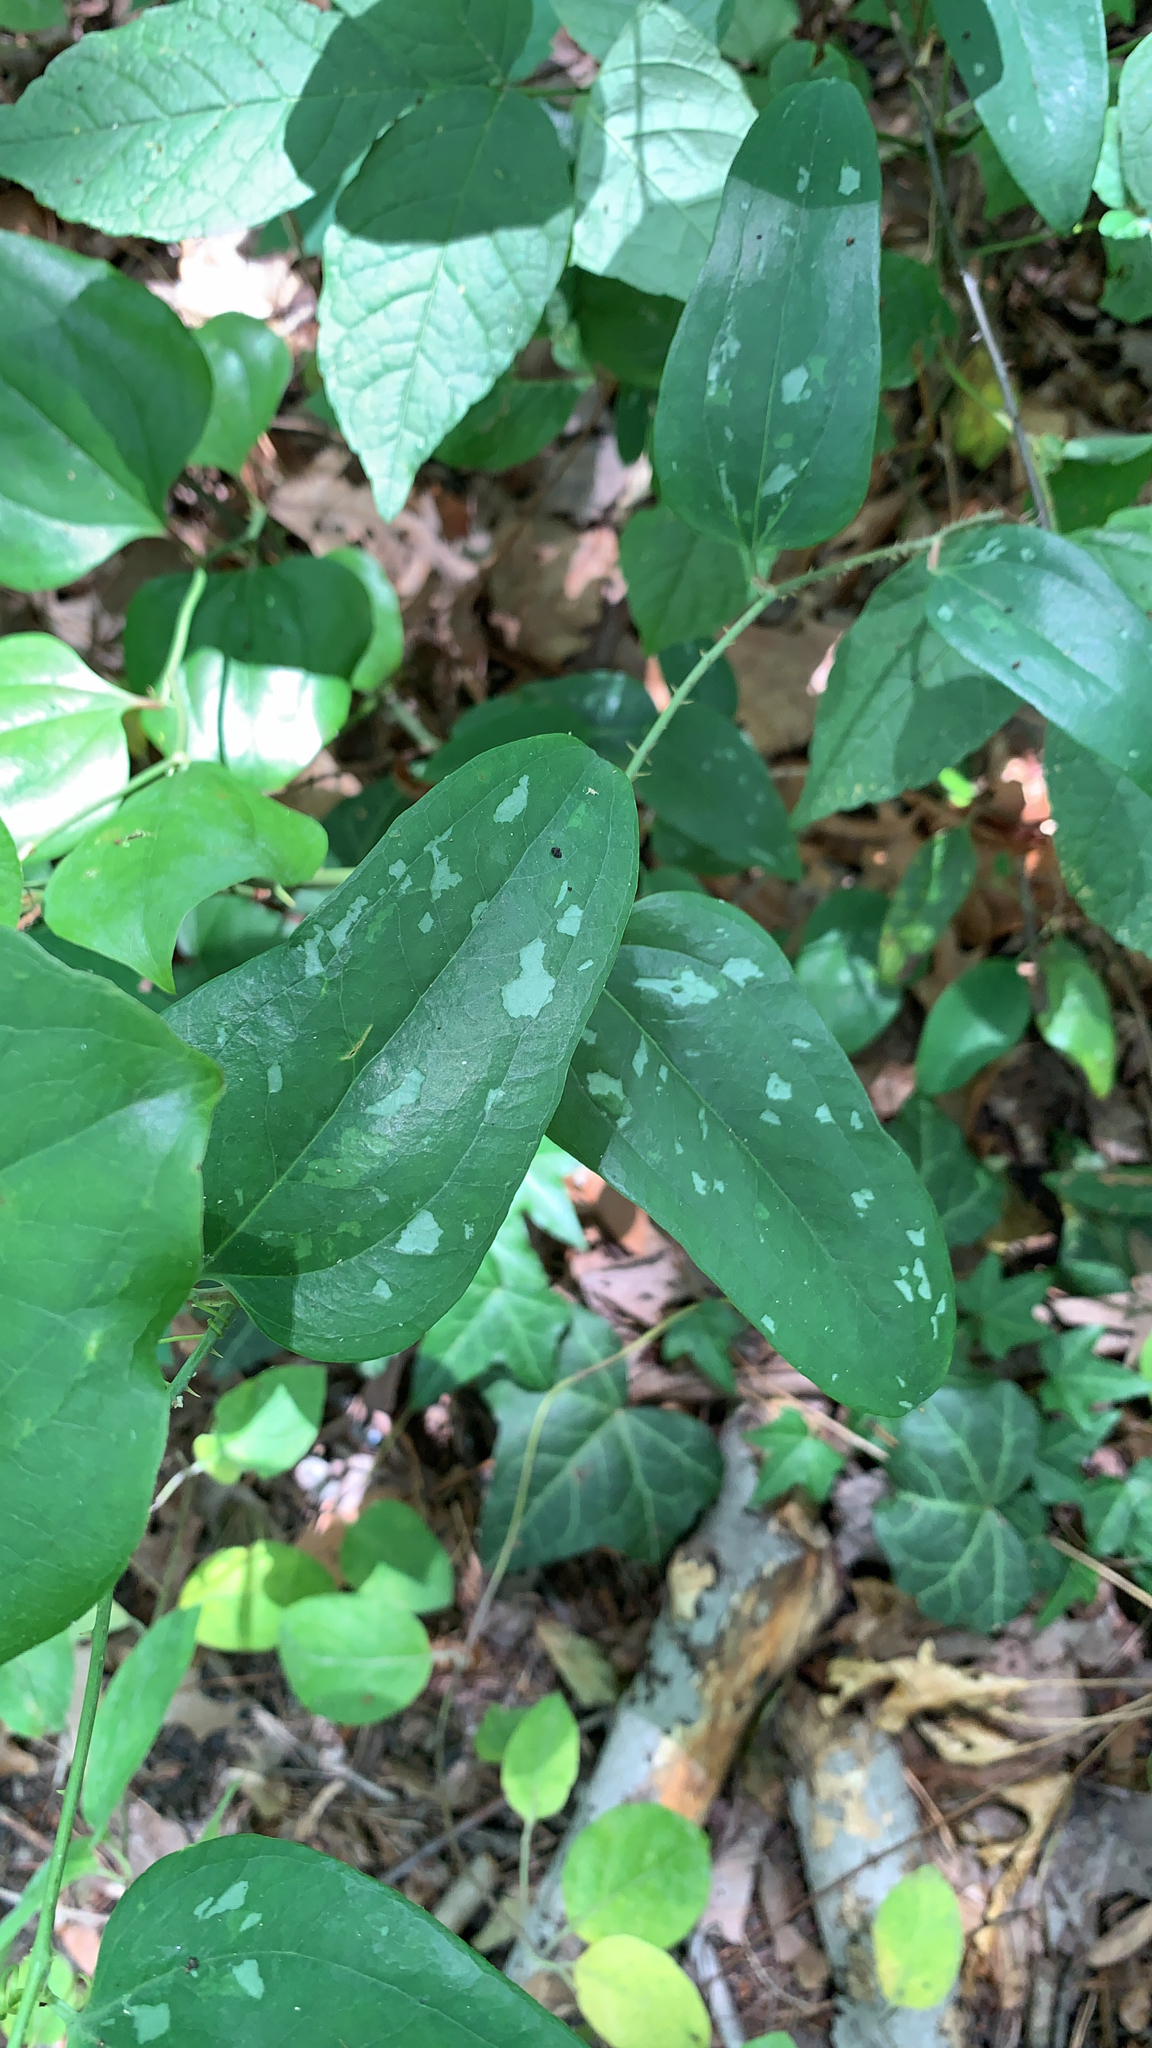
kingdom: Plantae
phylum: Tracheophyta
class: Liliopsida
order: Liliales
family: Smilacaceae
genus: Smilax
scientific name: Smilax glauca
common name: Cat greenbrier
